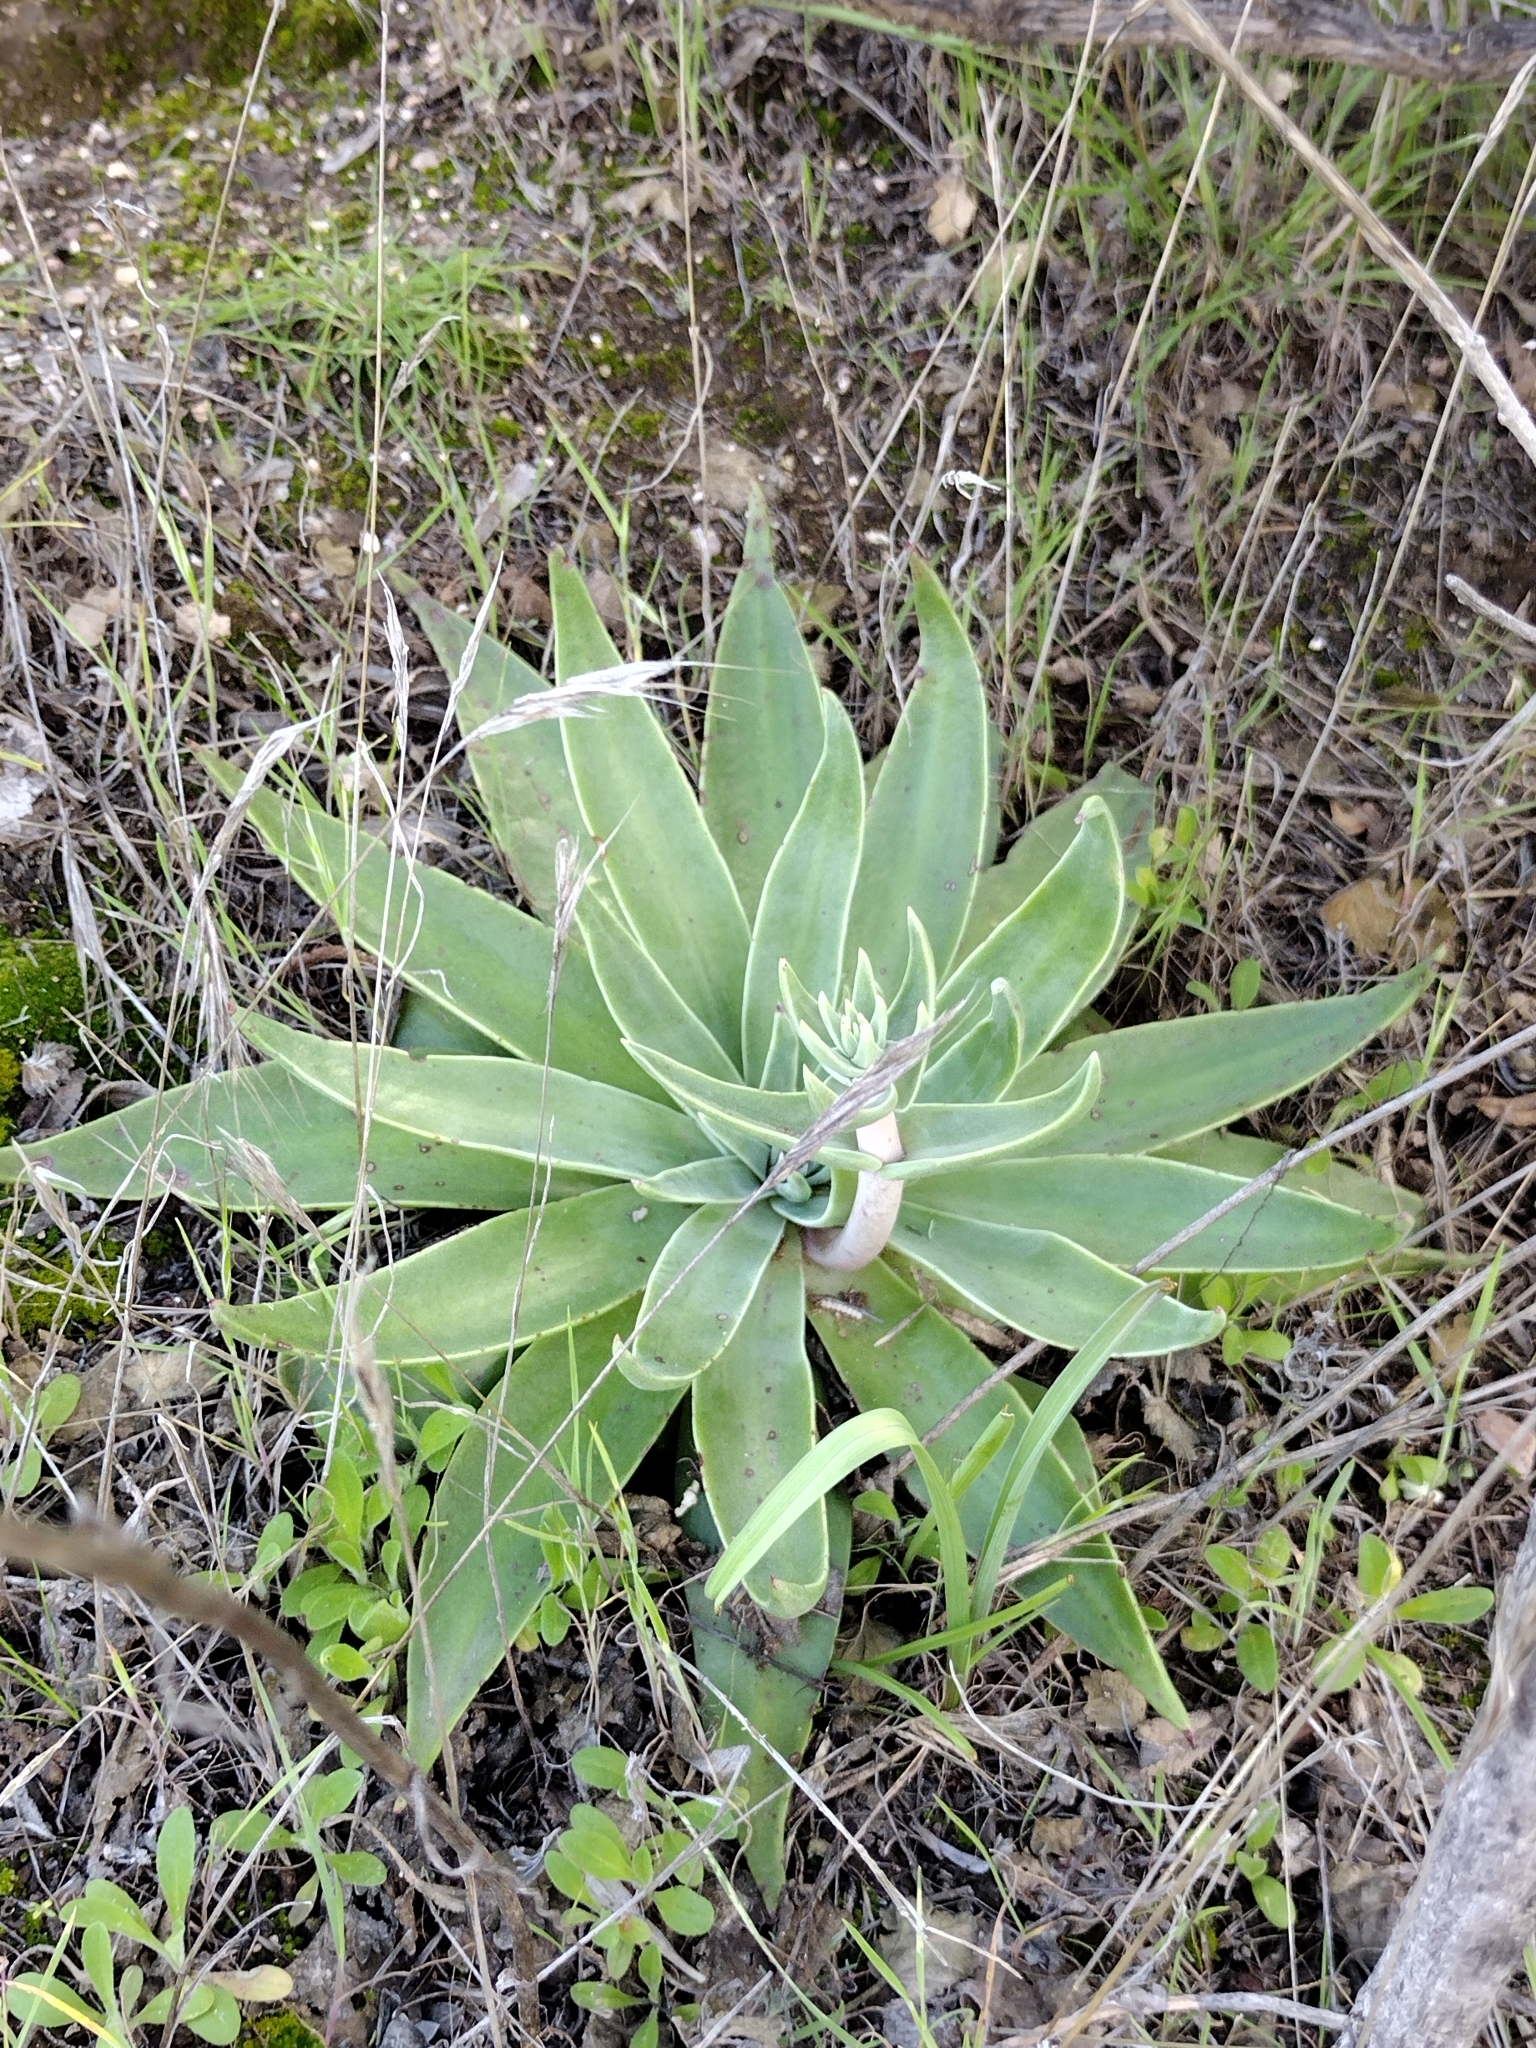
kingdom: Plantae
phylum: Tracheophyta
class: Magnoliopsida
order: Saxifragales
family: Crassulaceae
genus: Dudleya
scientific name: Dudleya lanceolata
